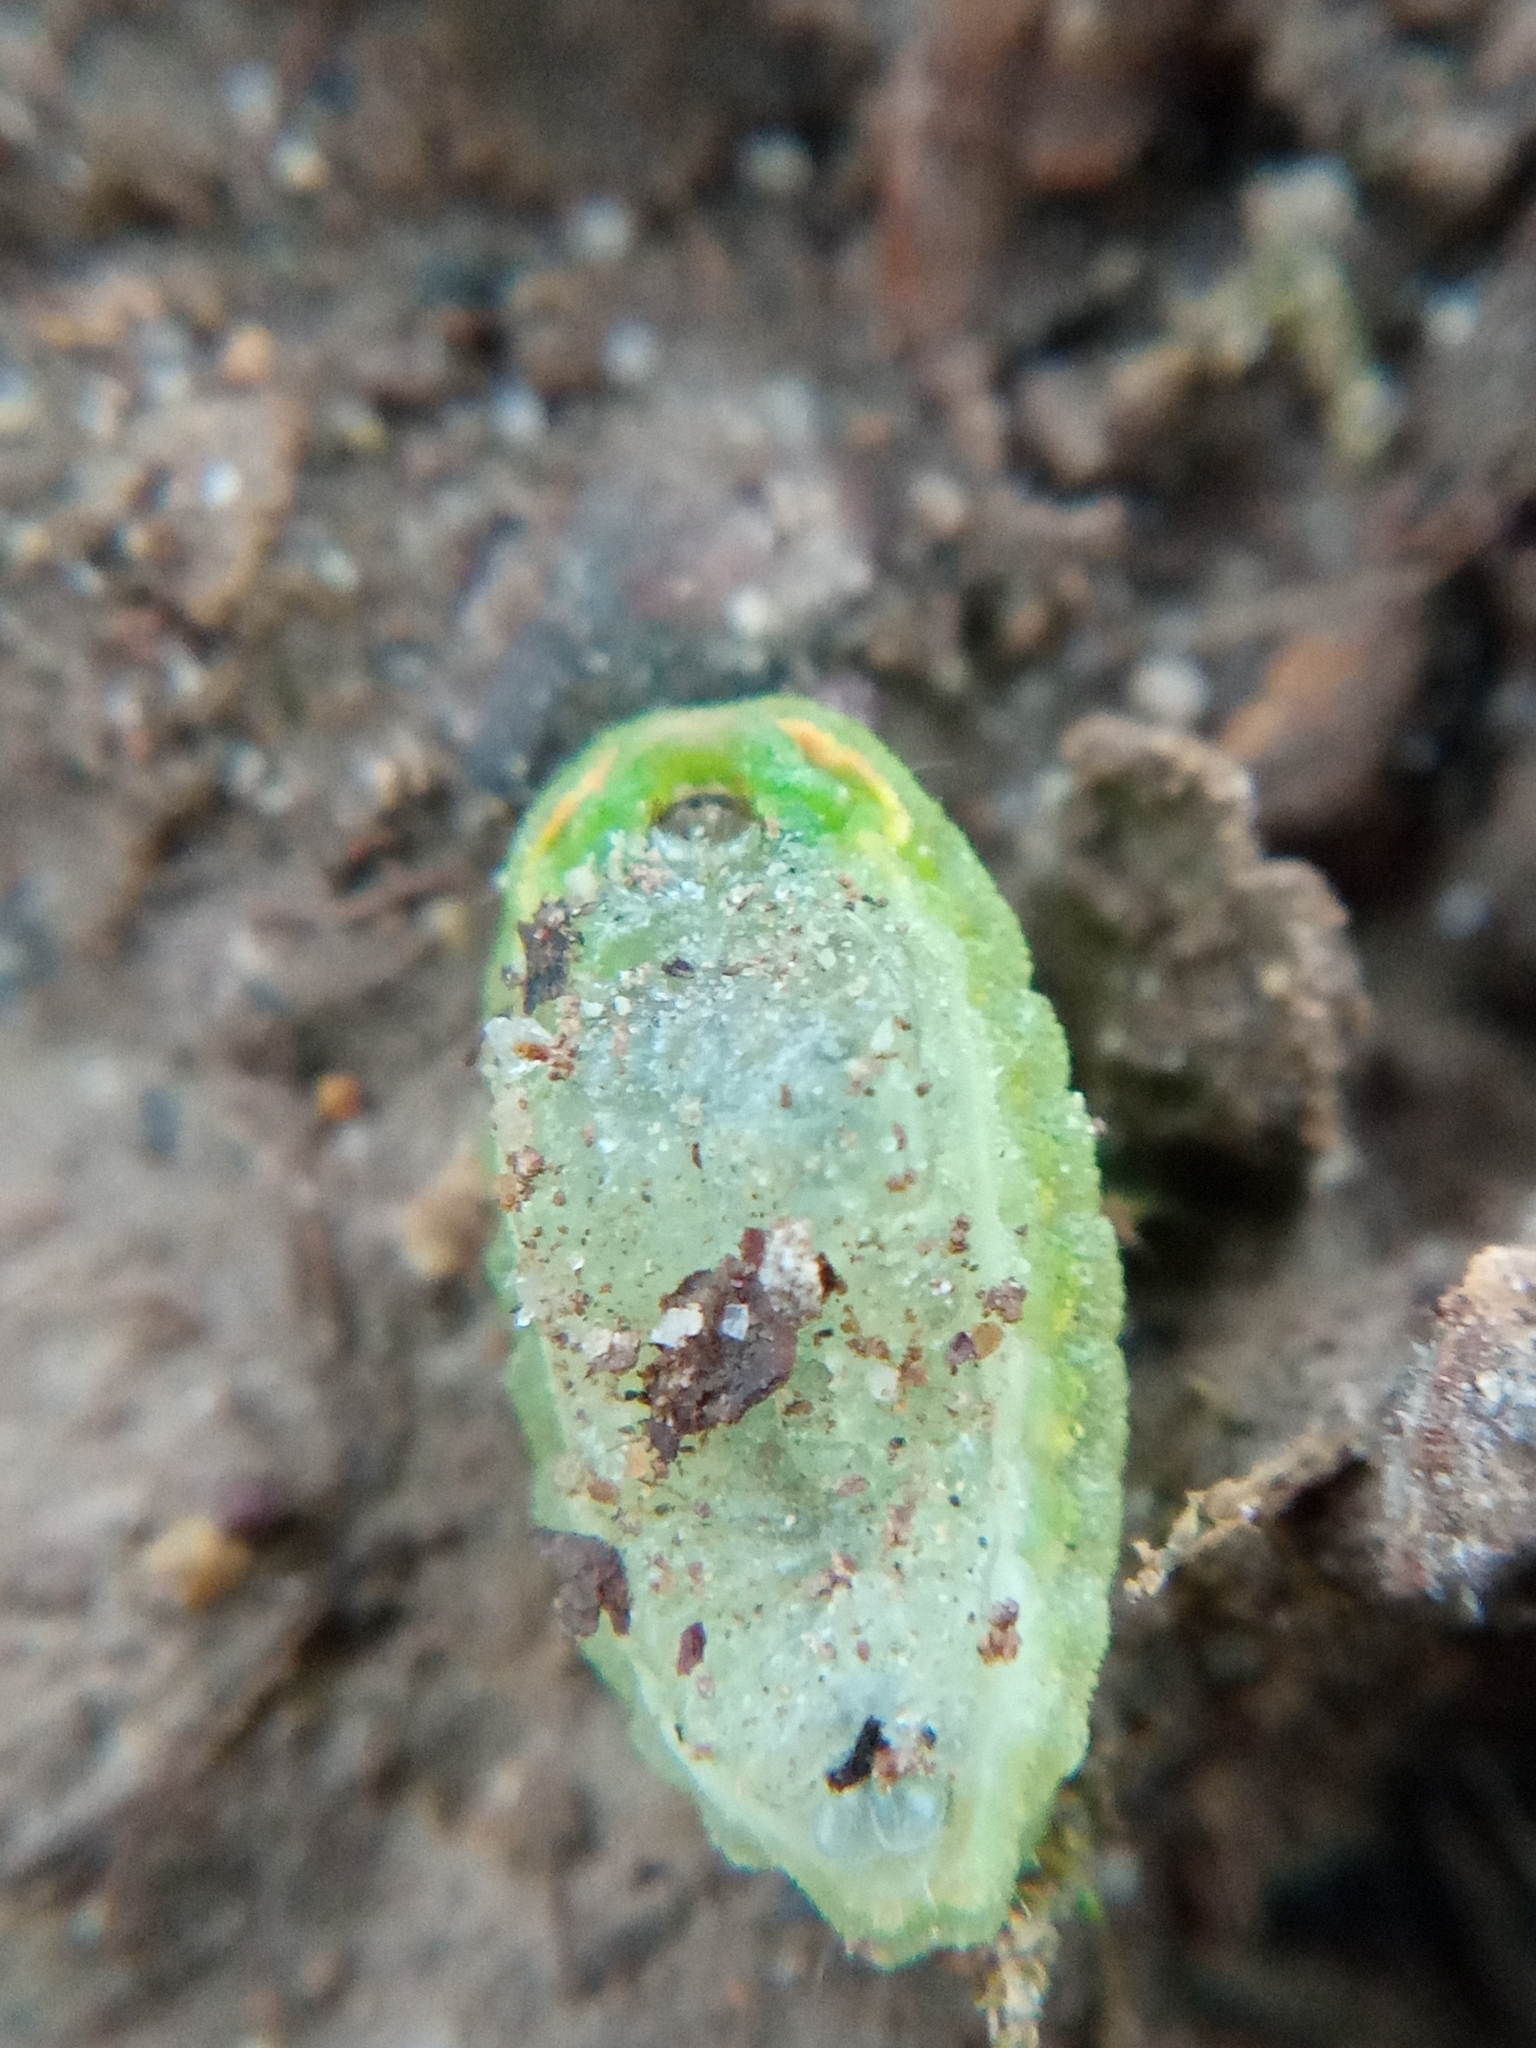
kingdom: Animalia
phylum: Arthropoda
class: Insecta
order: Lepidoptera
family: Limacodidae
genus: Apoda
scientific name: Apoda limacodes
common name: Festoon
